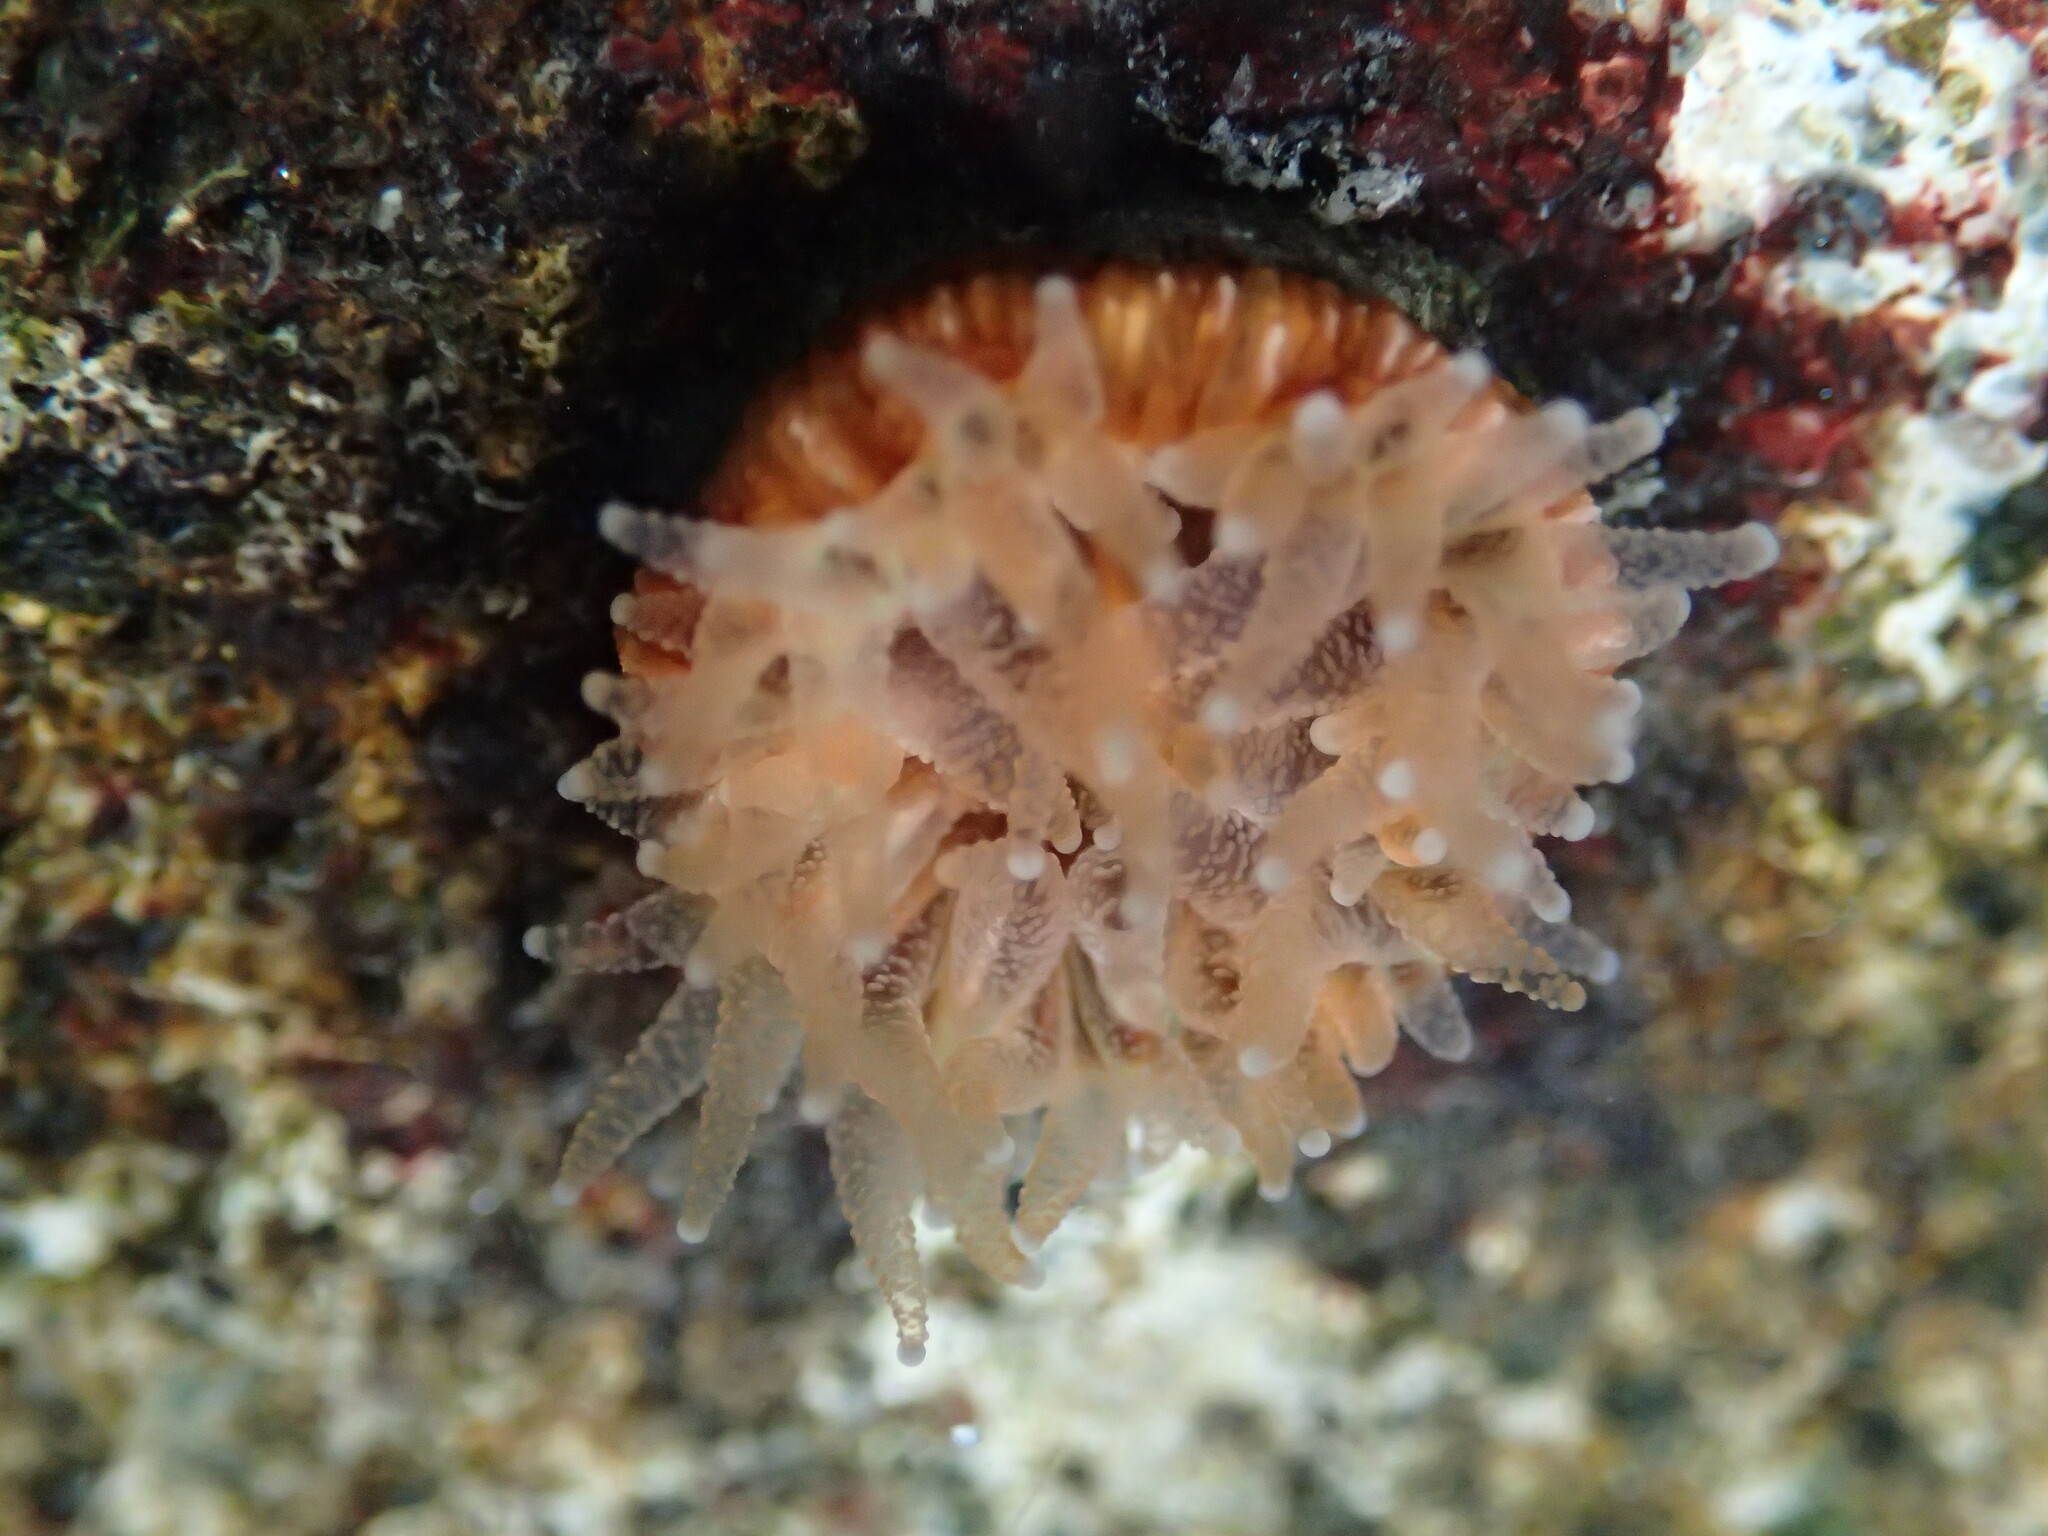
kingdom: Animalia
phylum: Cnidaria
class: Anthozoa
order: Scleractinia
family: Caryophylliidae
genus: Paracyathus
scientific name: Paracyathus stearnsii
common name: Brown stony coral
